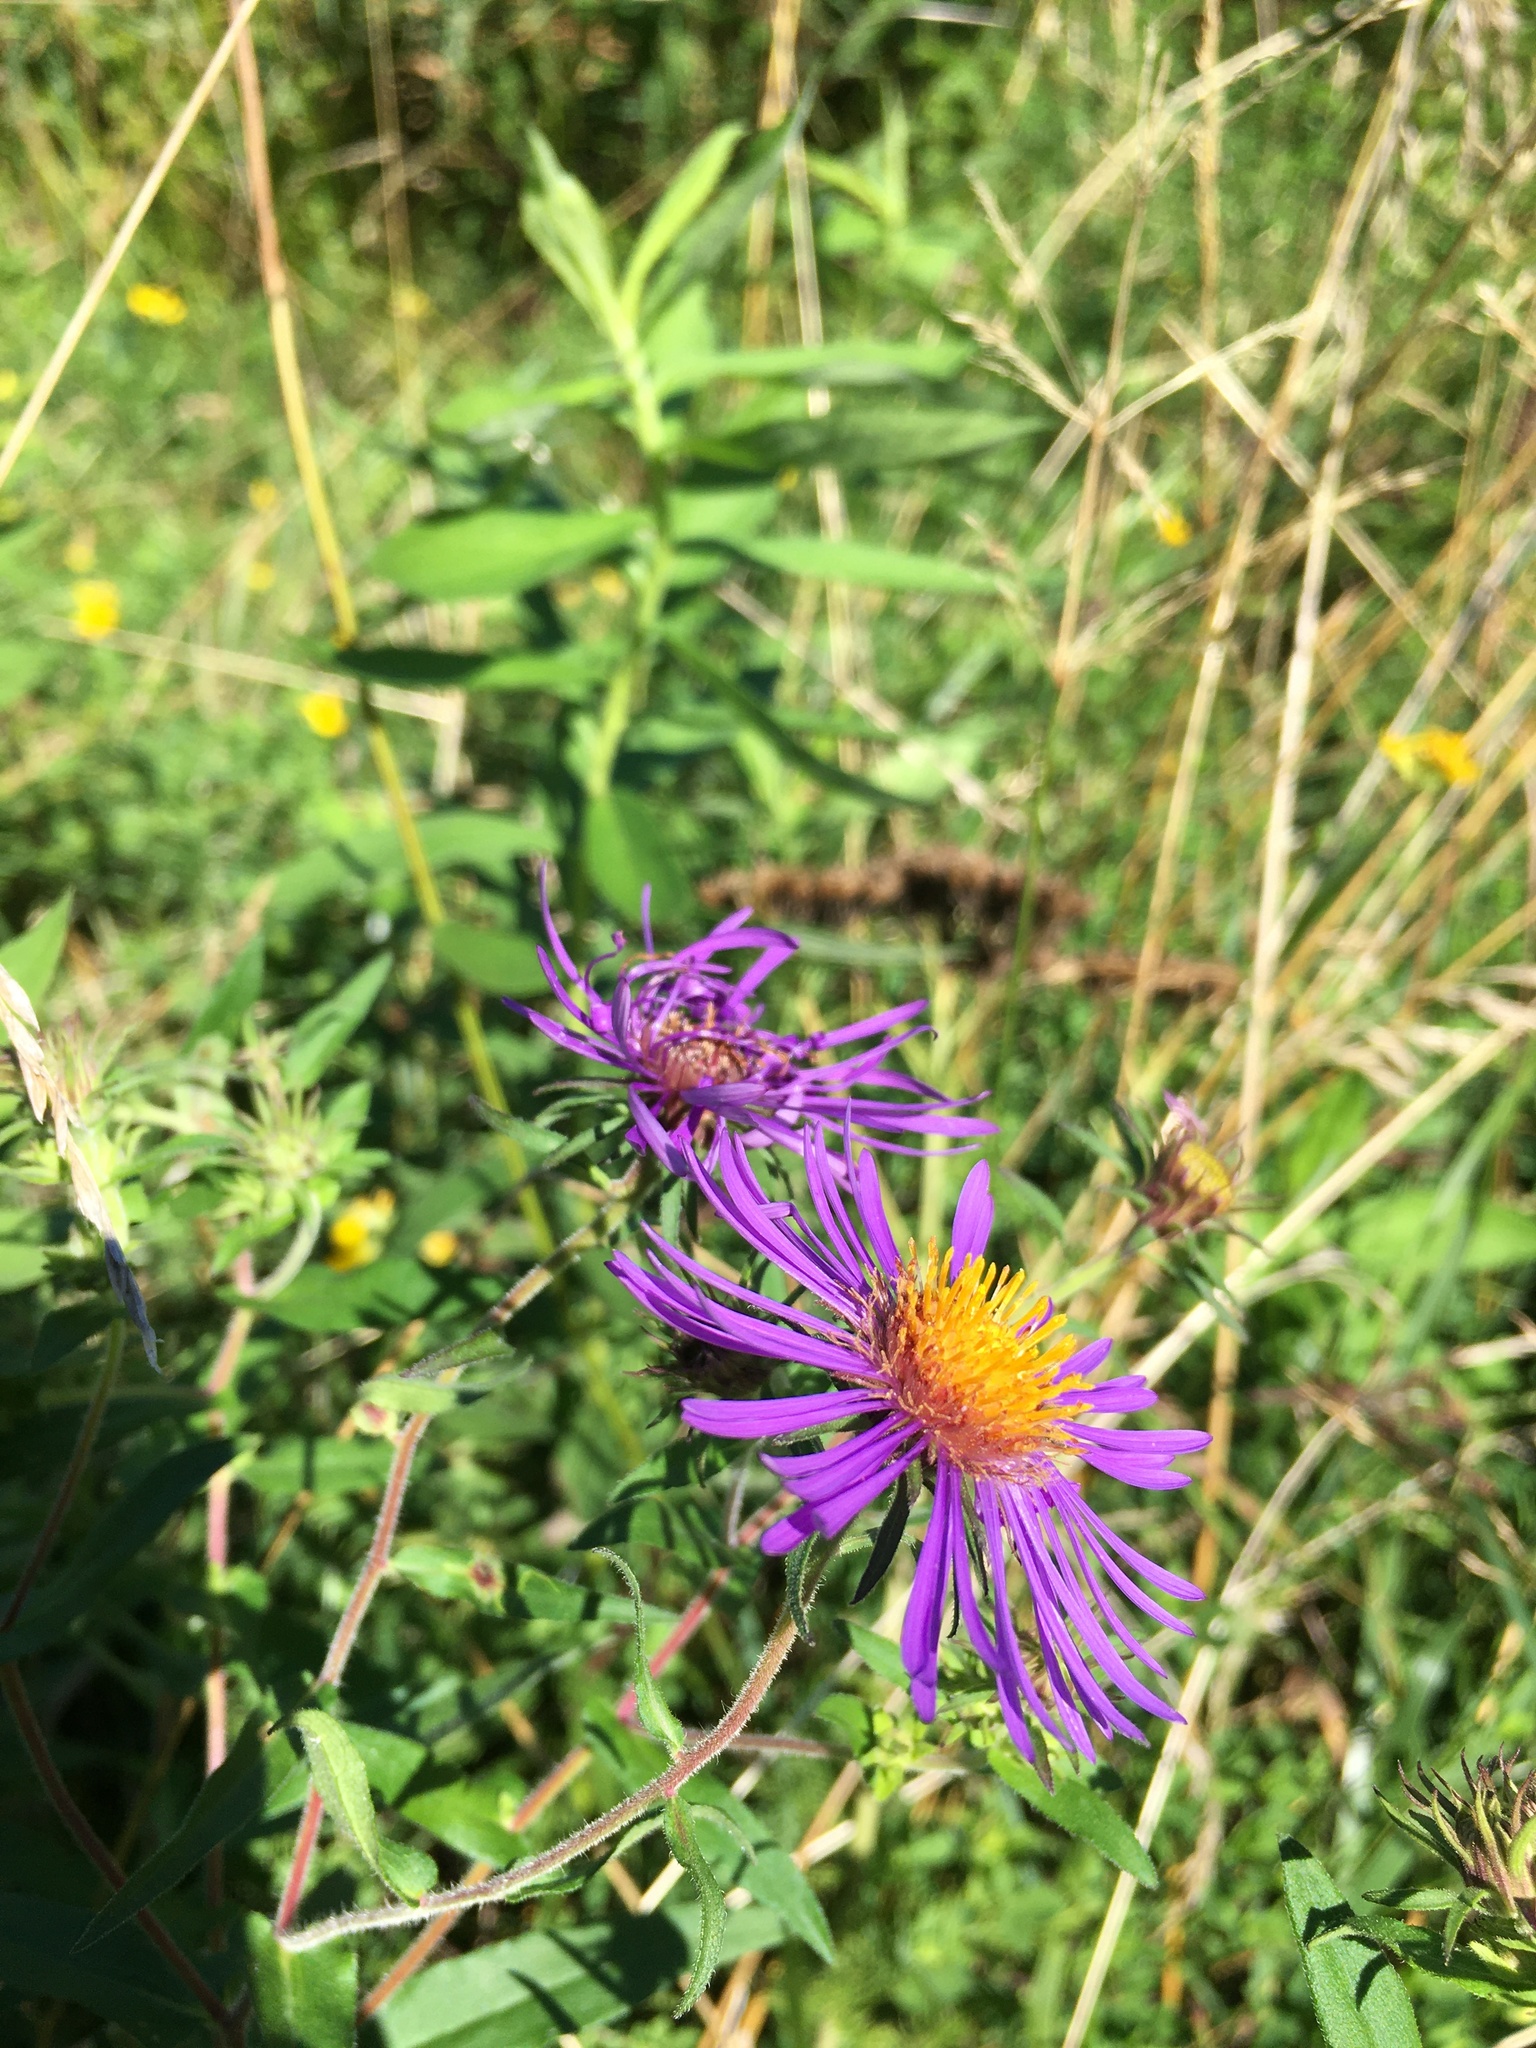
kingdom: Plantae
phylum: Tracheophyta
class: Magnoliopsida
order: Asterales
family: Asteraceae
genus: Symphyotrichum
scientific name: Symphyotrichum novae-angliae
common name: Michaelmas daisy
